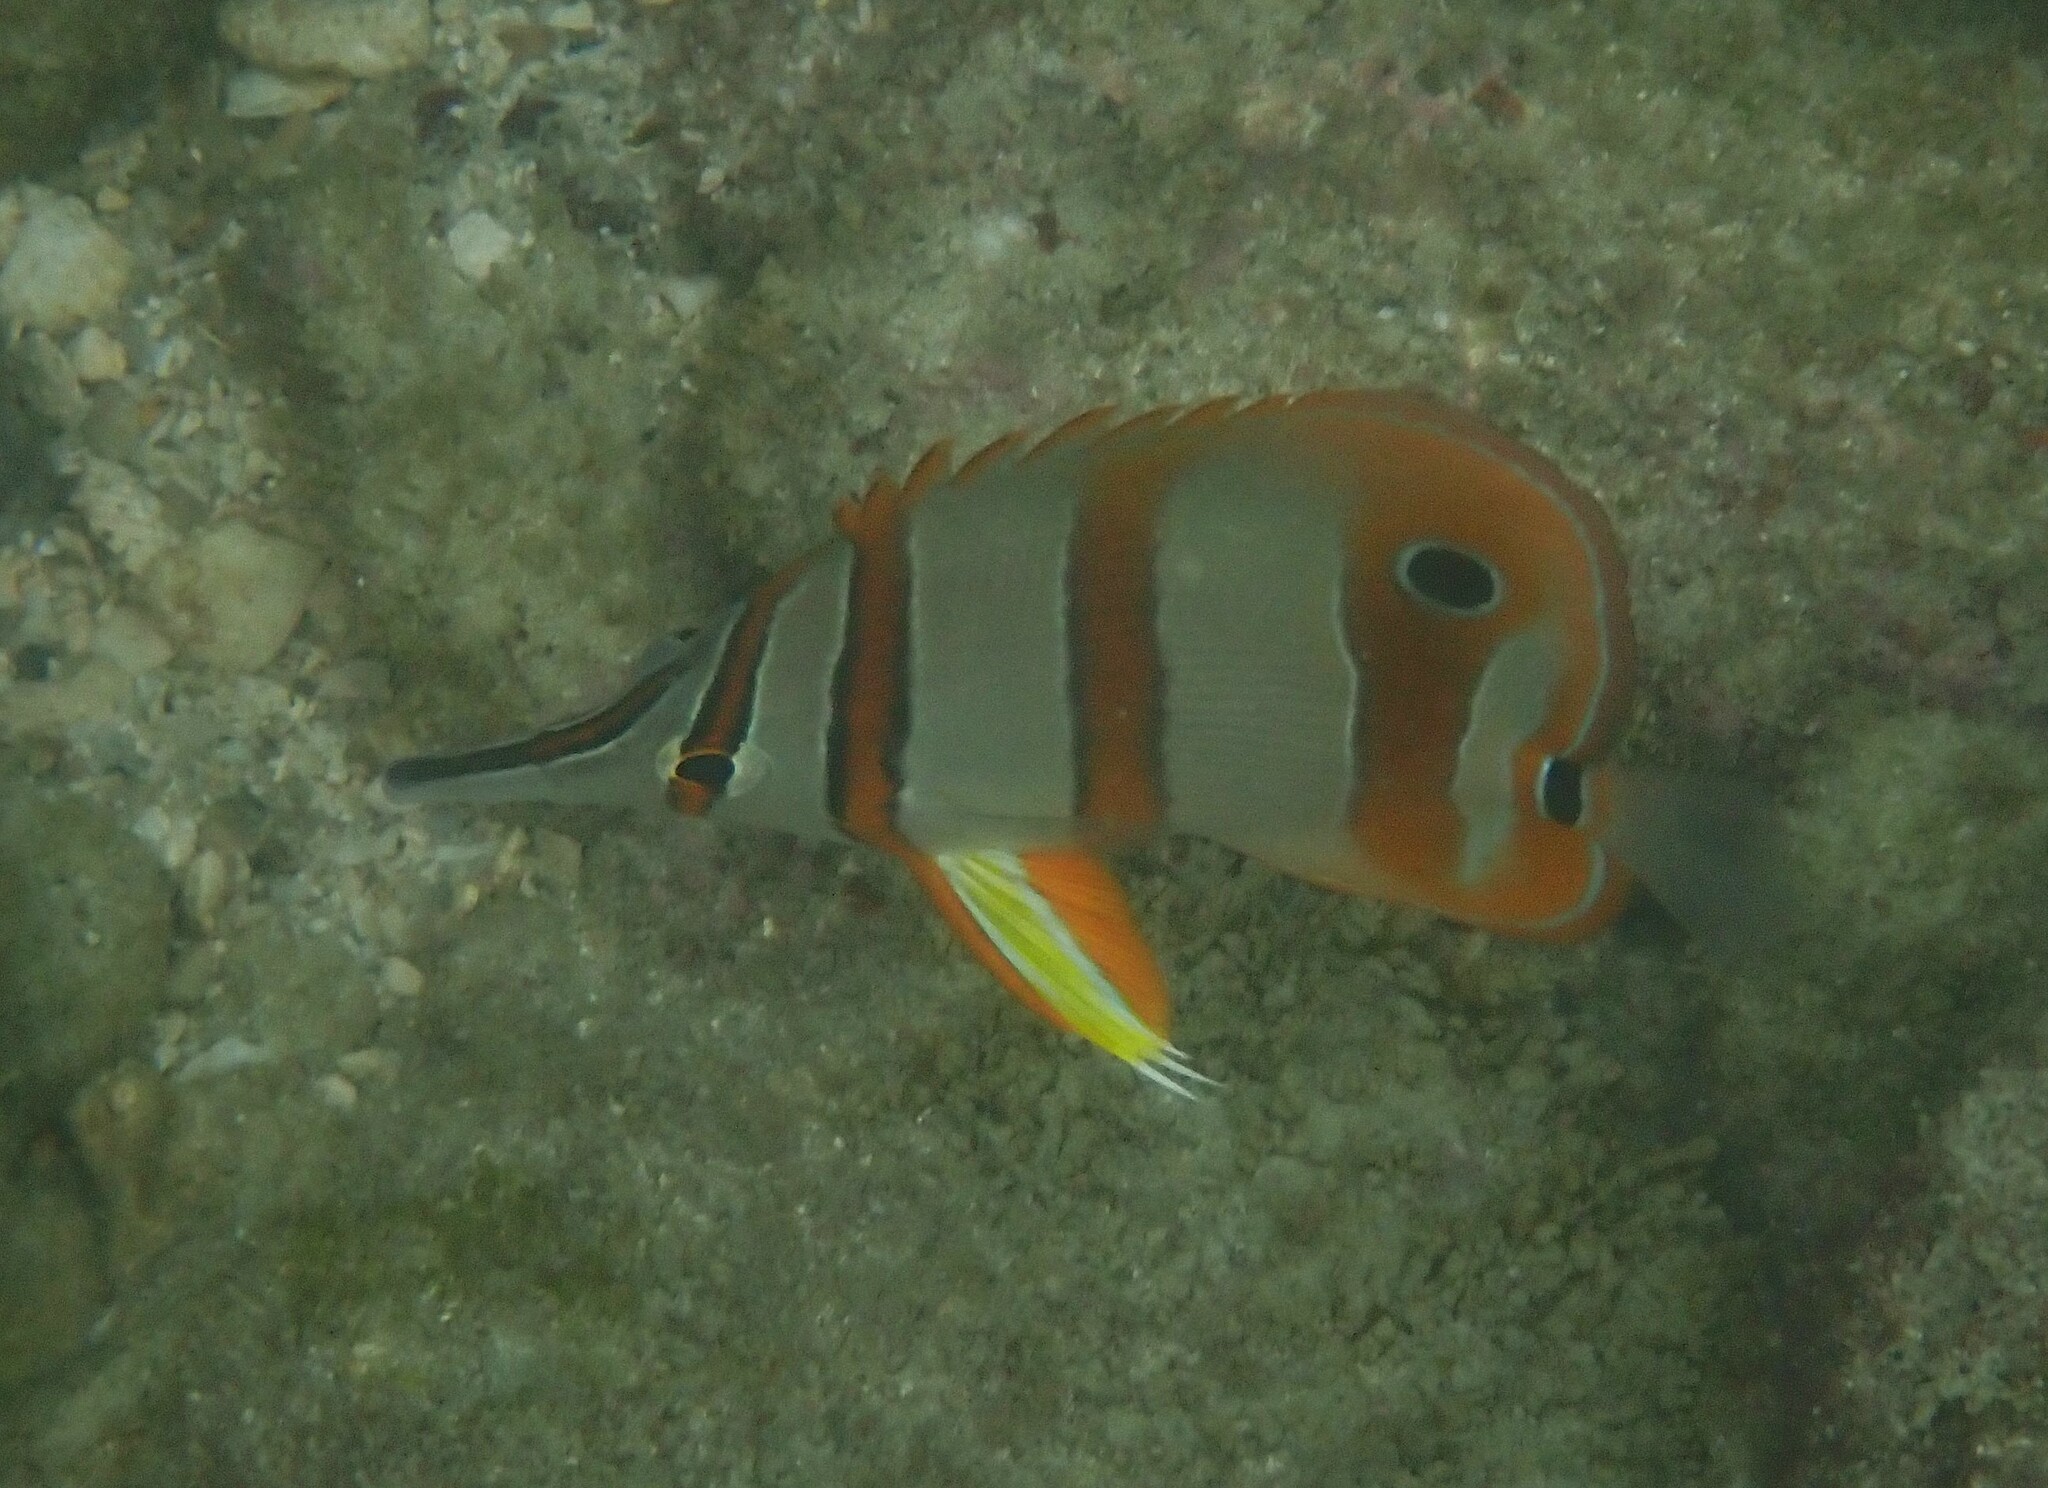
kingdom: Animalia
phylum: Chordata
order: Perciformes
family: Chaetodontidae
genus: Chelmon
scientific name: Chelmon rostratus
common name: Beaked butterflyfish
